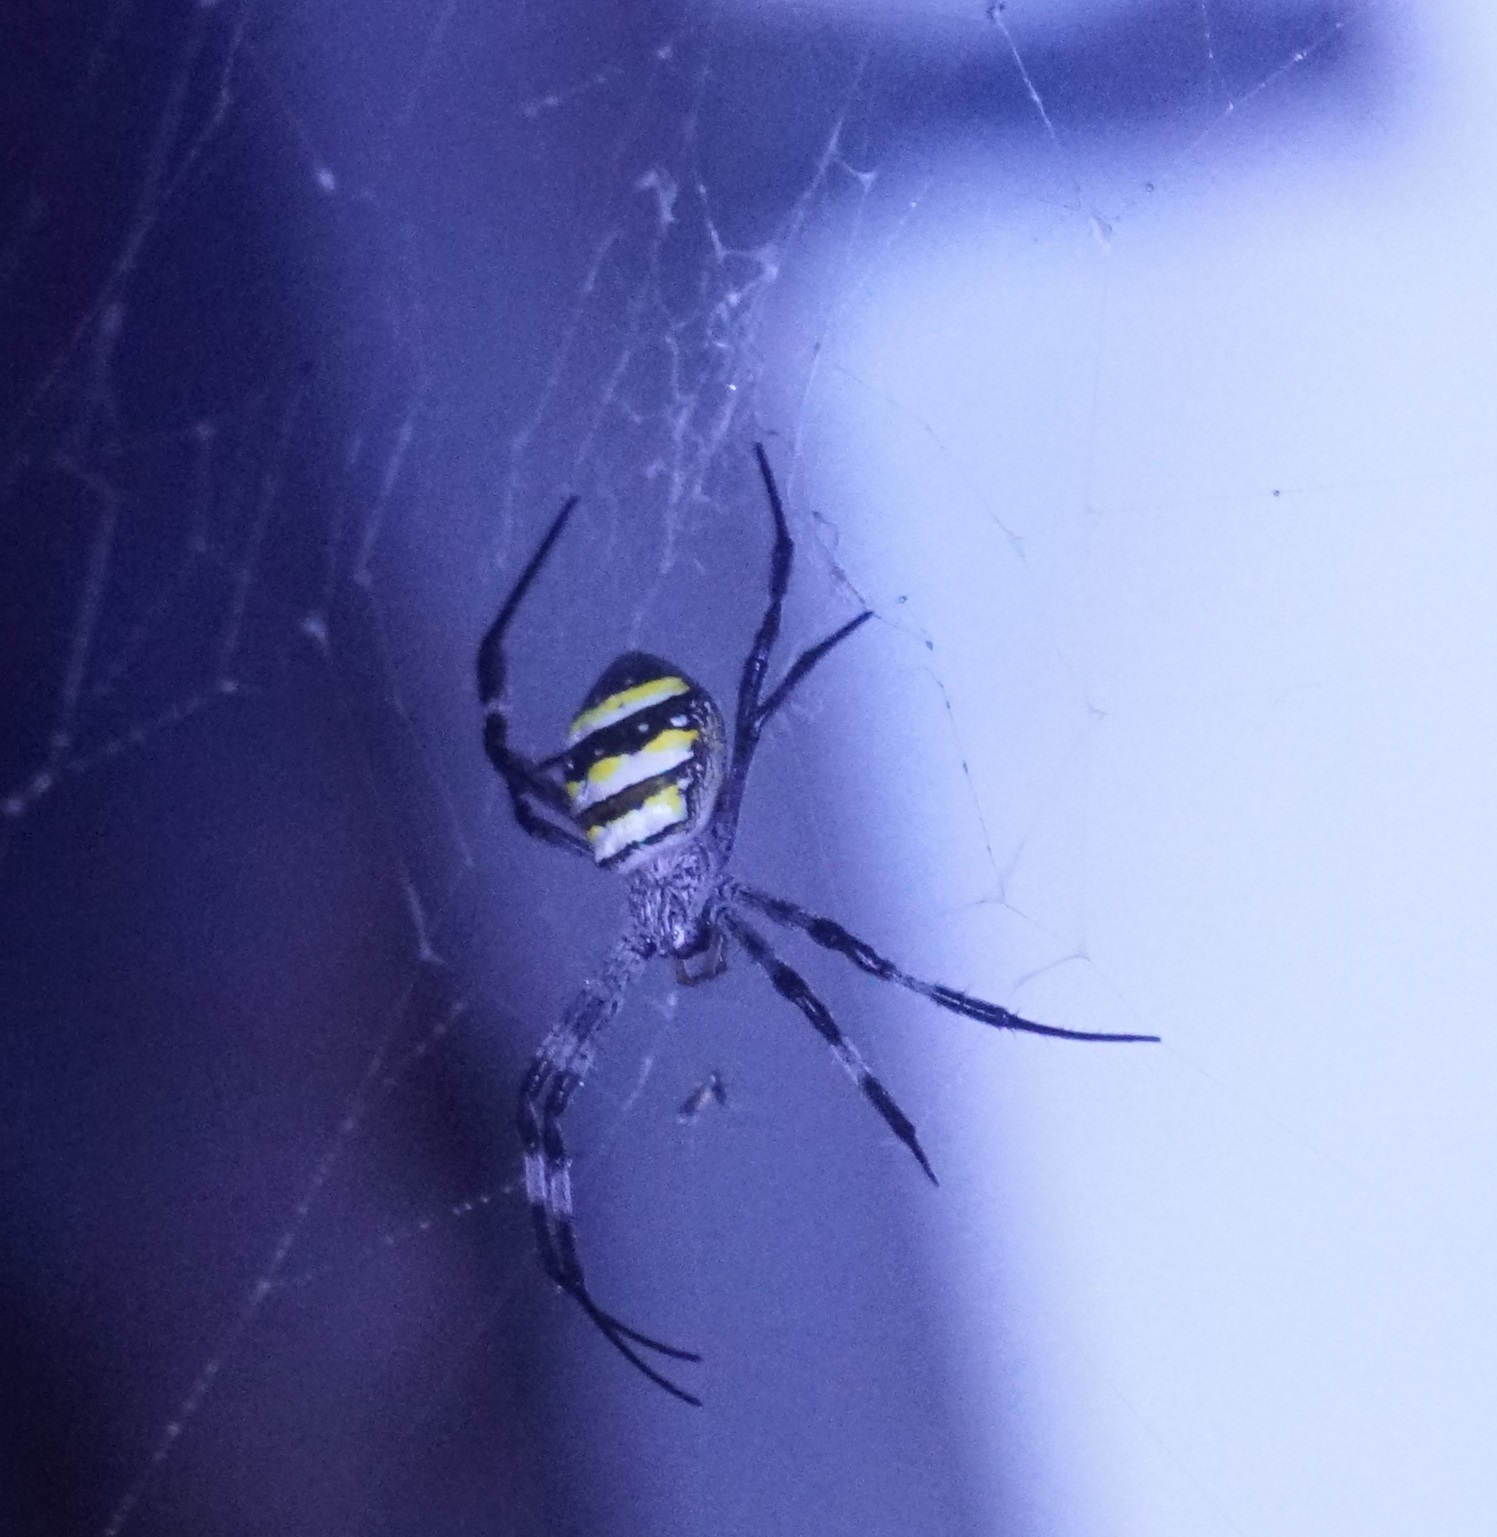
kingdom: Animalia
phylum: Arthropoda
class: Arachnida
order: Araneae
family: Araneidae
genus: Argiope
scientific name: Argiope aetherea
